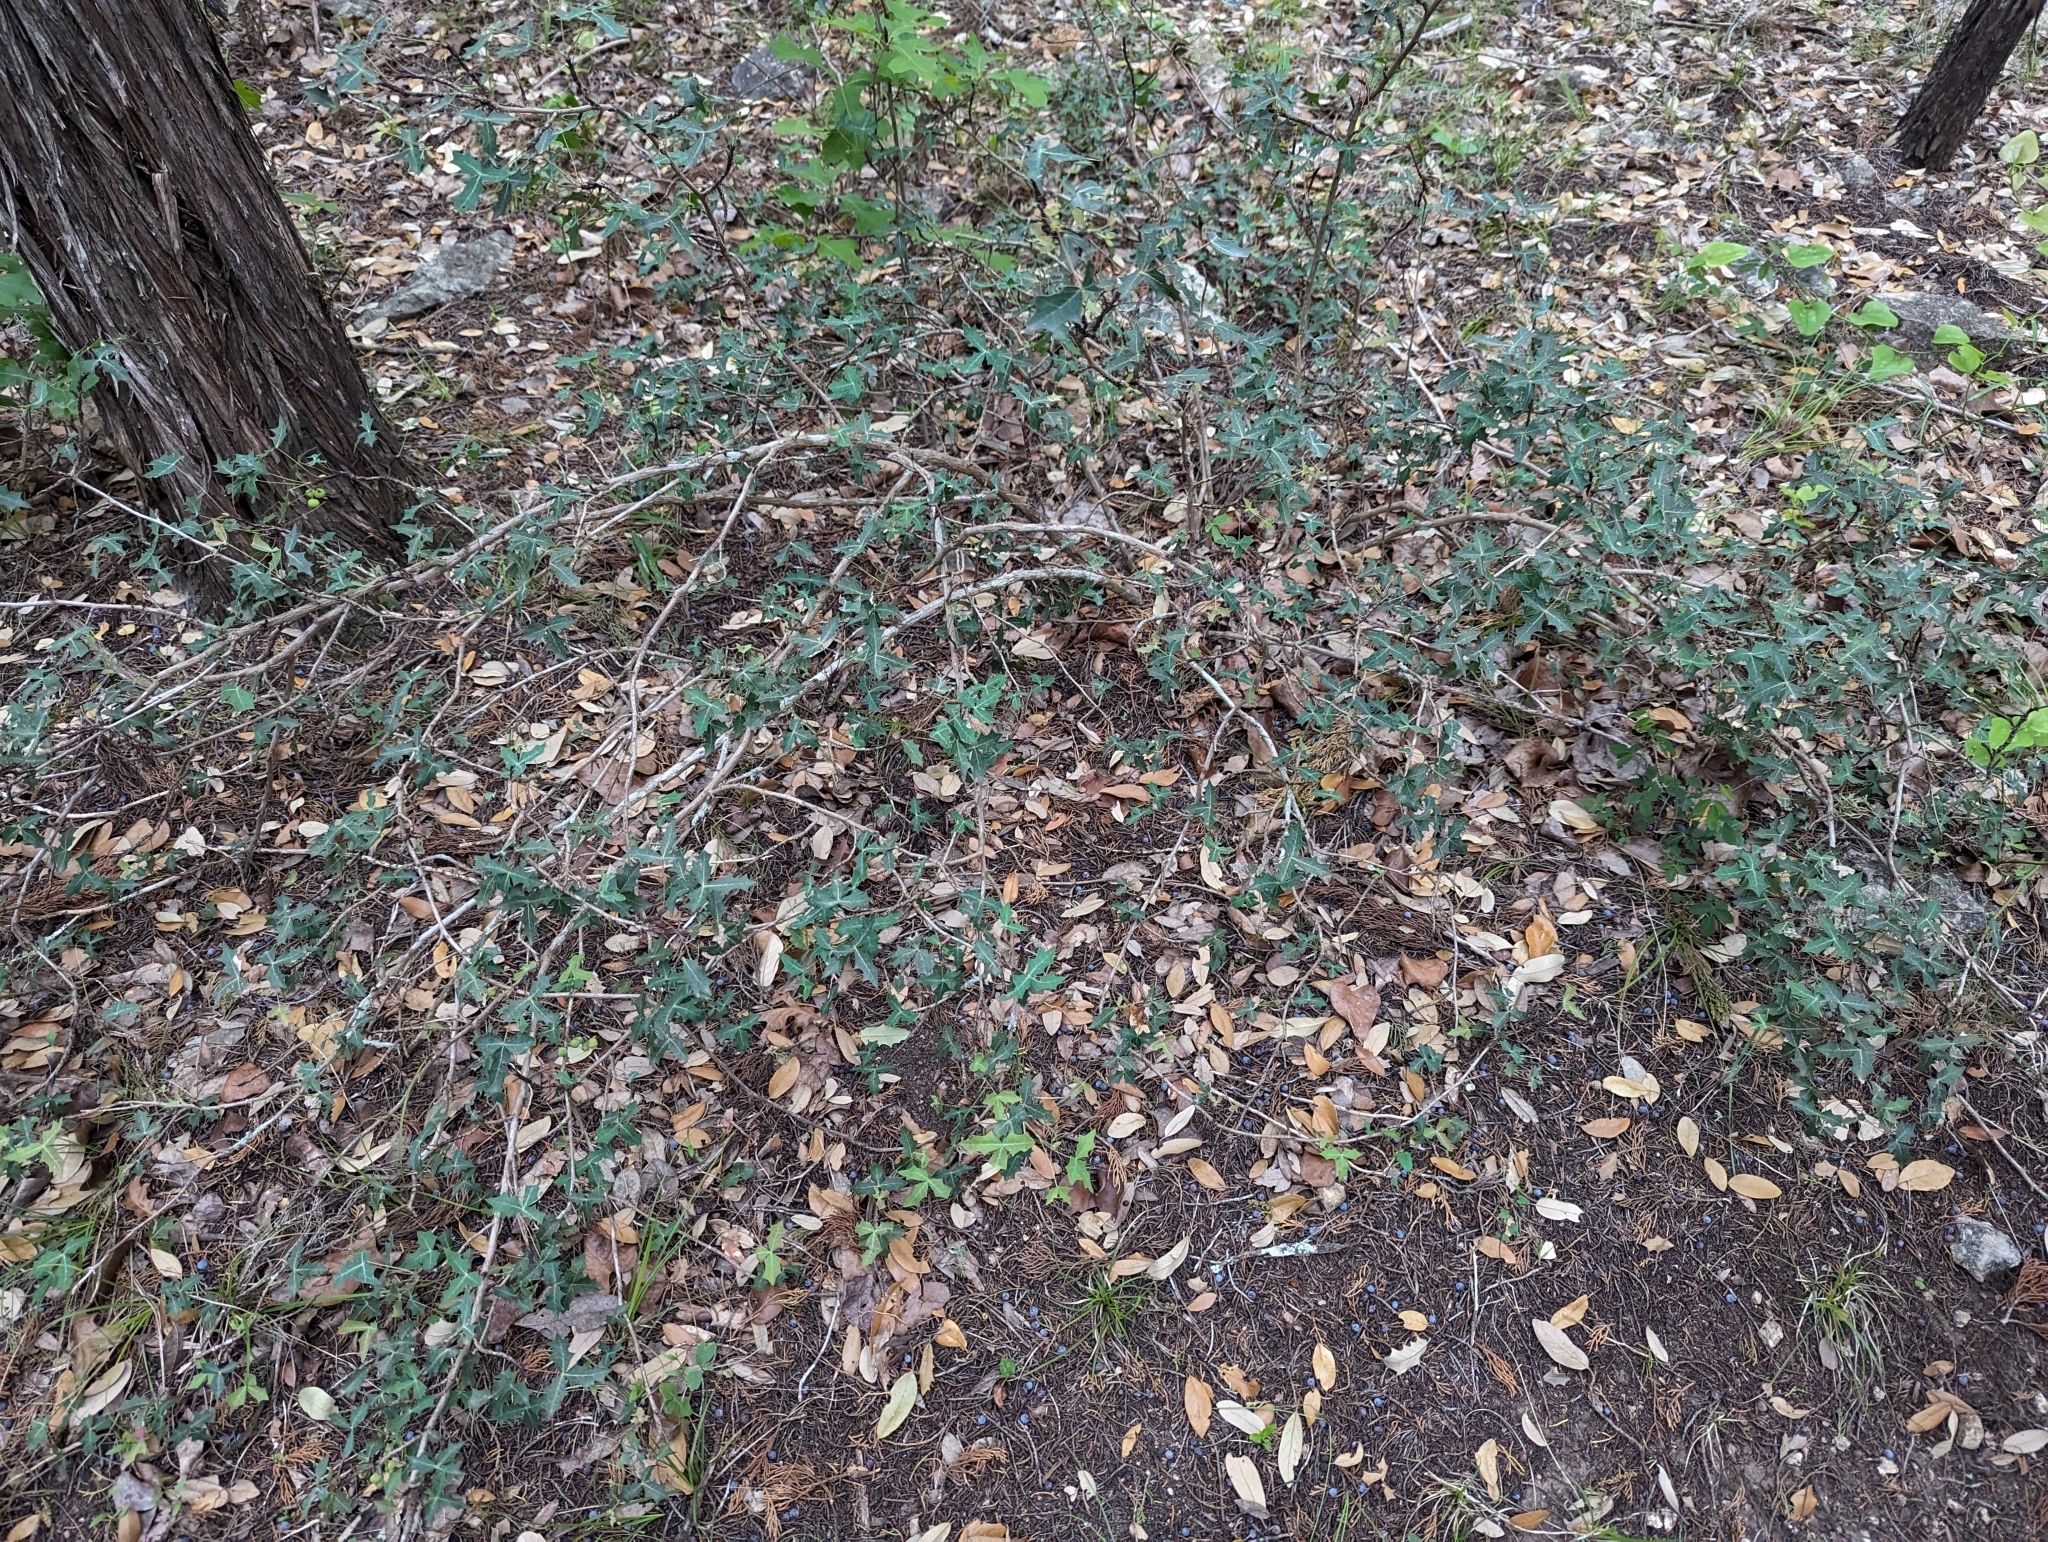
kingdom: Plantae
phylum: Tracheophyta
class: Magnoliopsida
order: Ranunculales
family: Berberidaceae
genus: Alloberberis
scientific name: Alloberberis trifoliolata
